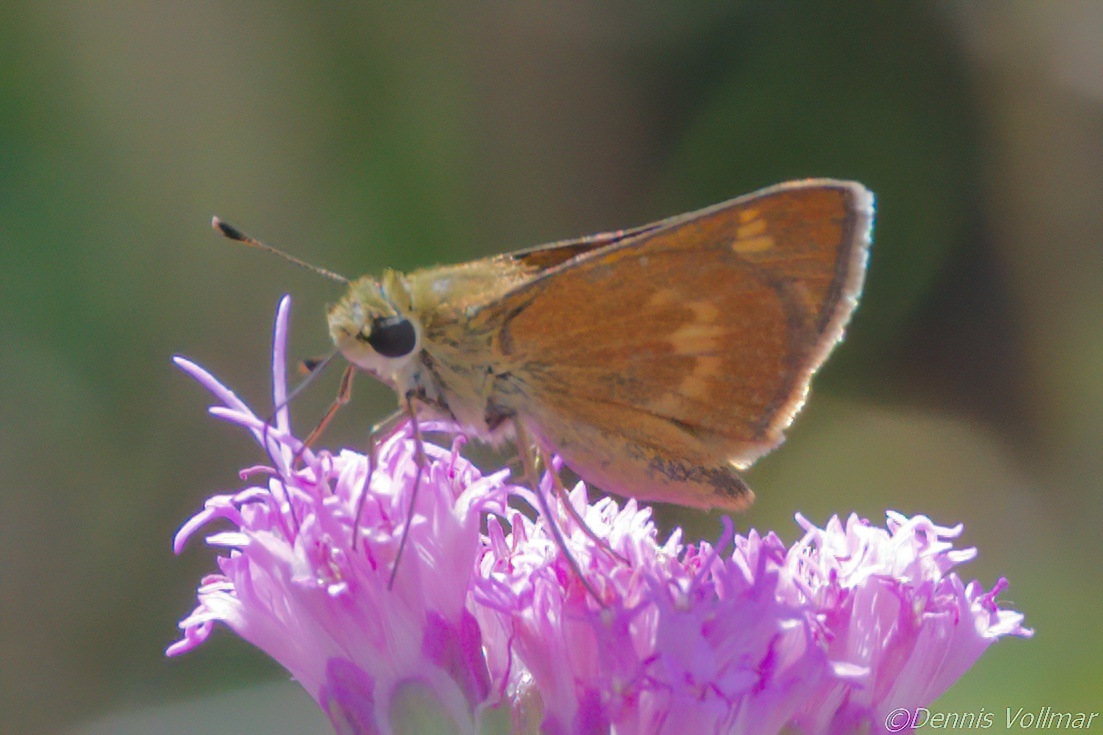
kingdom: Animalia
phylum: Arthropoda
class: Insecta
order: Lepidoptera
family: Hesperiidae
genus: Polites
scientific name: Polites otho
